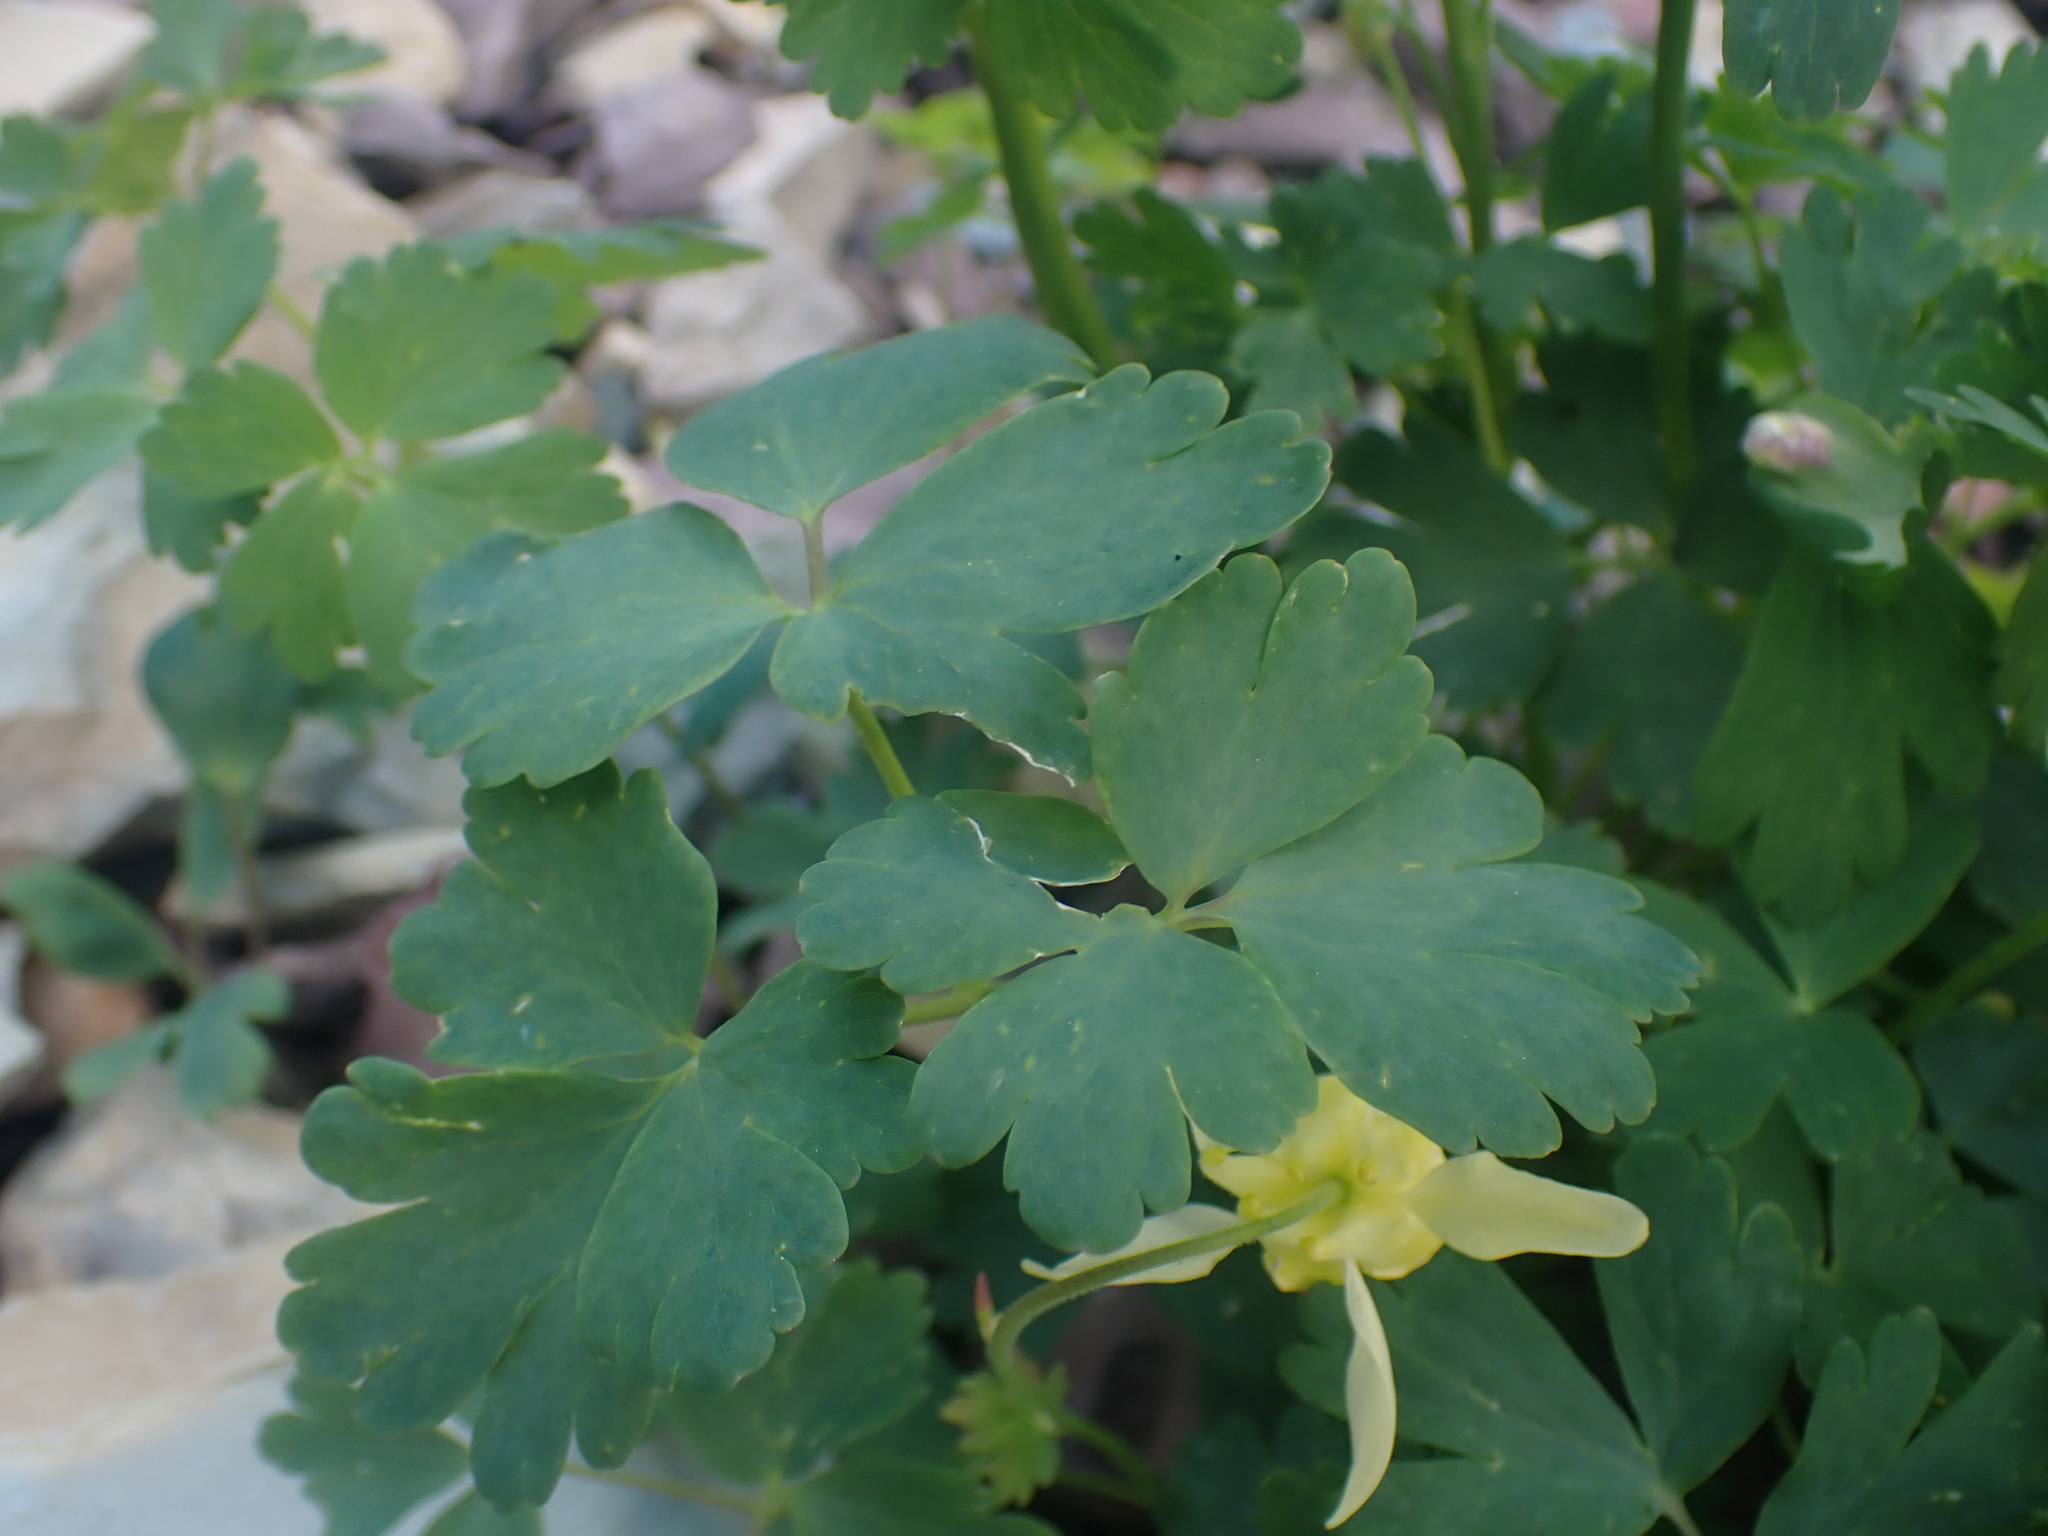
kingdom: Plantae
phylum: Tracheophyta
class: Magnoliopsida
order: Ranunculales
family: Ranunculaceae
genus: Aquilegia
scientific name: Aquilegia flavescens
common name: Yellow columbine
